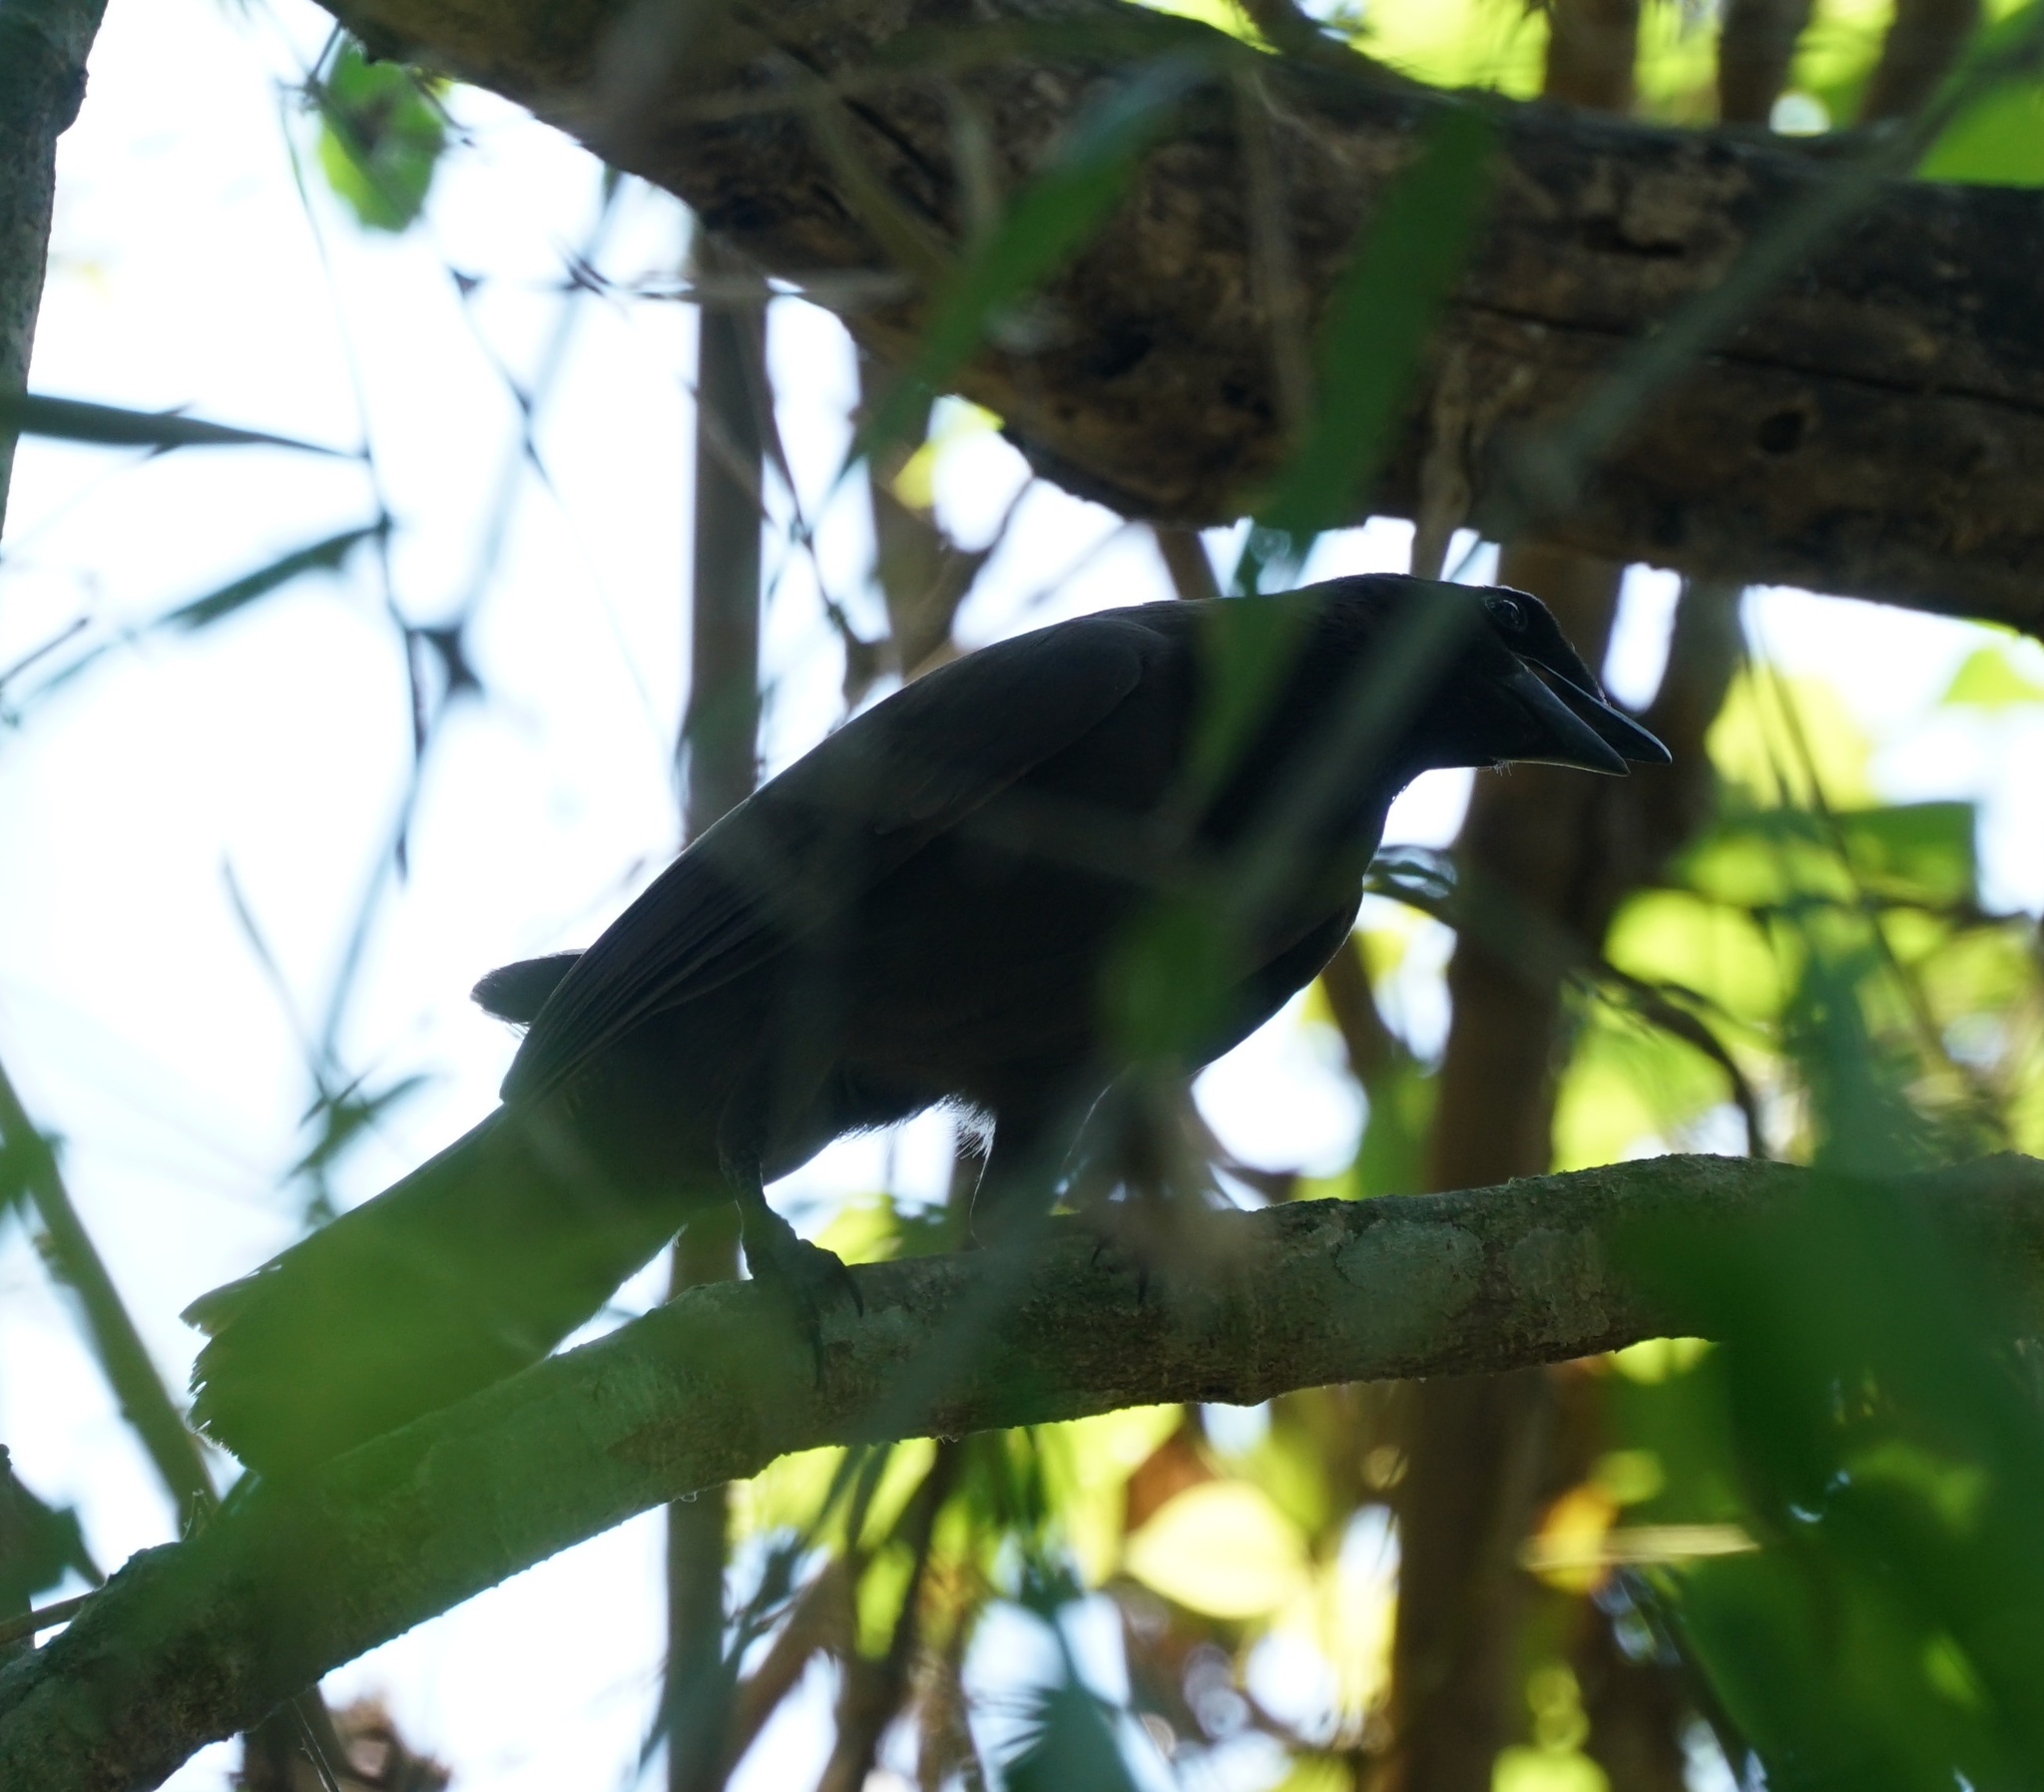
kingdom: Animalia
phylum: Chordata
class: Aves
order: Passeriformes
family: Corvidae
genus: Cyanocorax
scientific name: Cyanocorax cyanomelas
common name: Purplish jay
